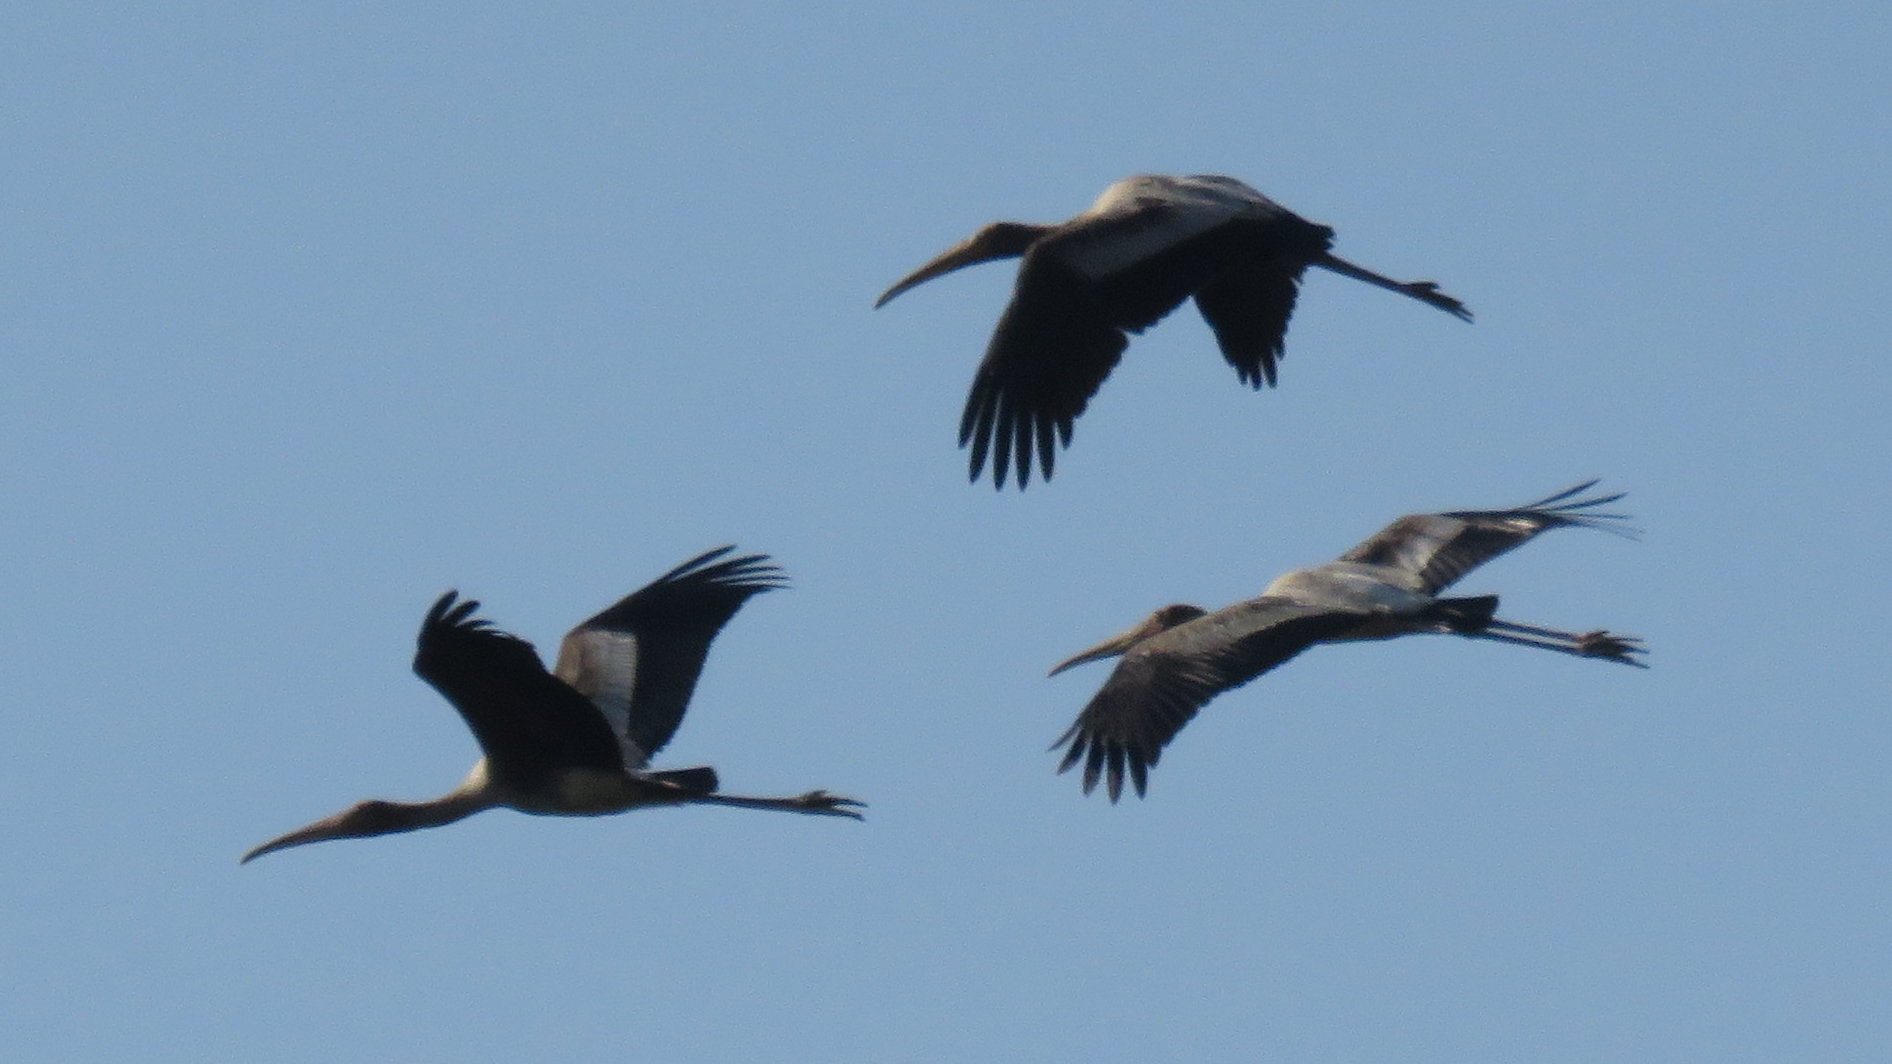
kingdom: Animalia
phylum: Chordata
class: Aves
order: Ciconiiformes
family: Ciconiidae
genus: Mycteria
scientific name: Mycteria leucocephala
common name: Painted stork
